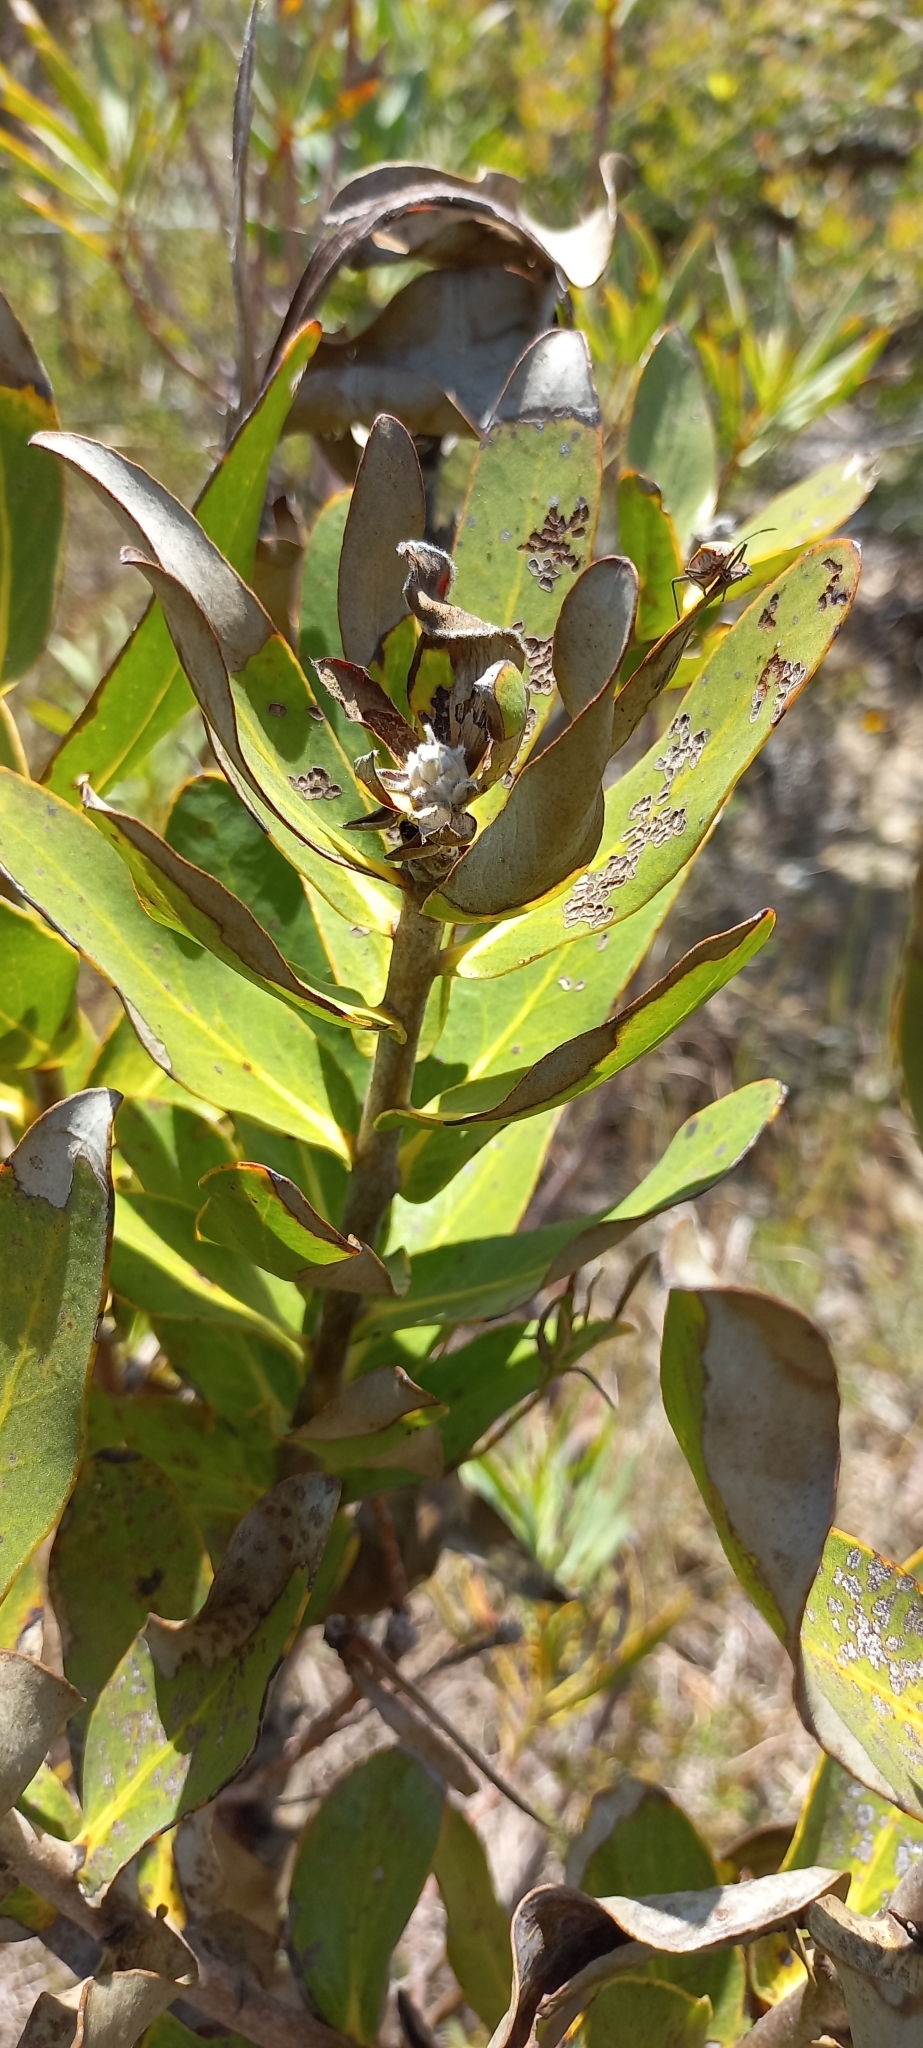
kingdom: Plantae
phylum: Tracheophyta
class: Magnoliopsida
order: Proteales
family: Proteaceae
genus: Protea
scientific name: Protea compacta
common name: Bot river protea
